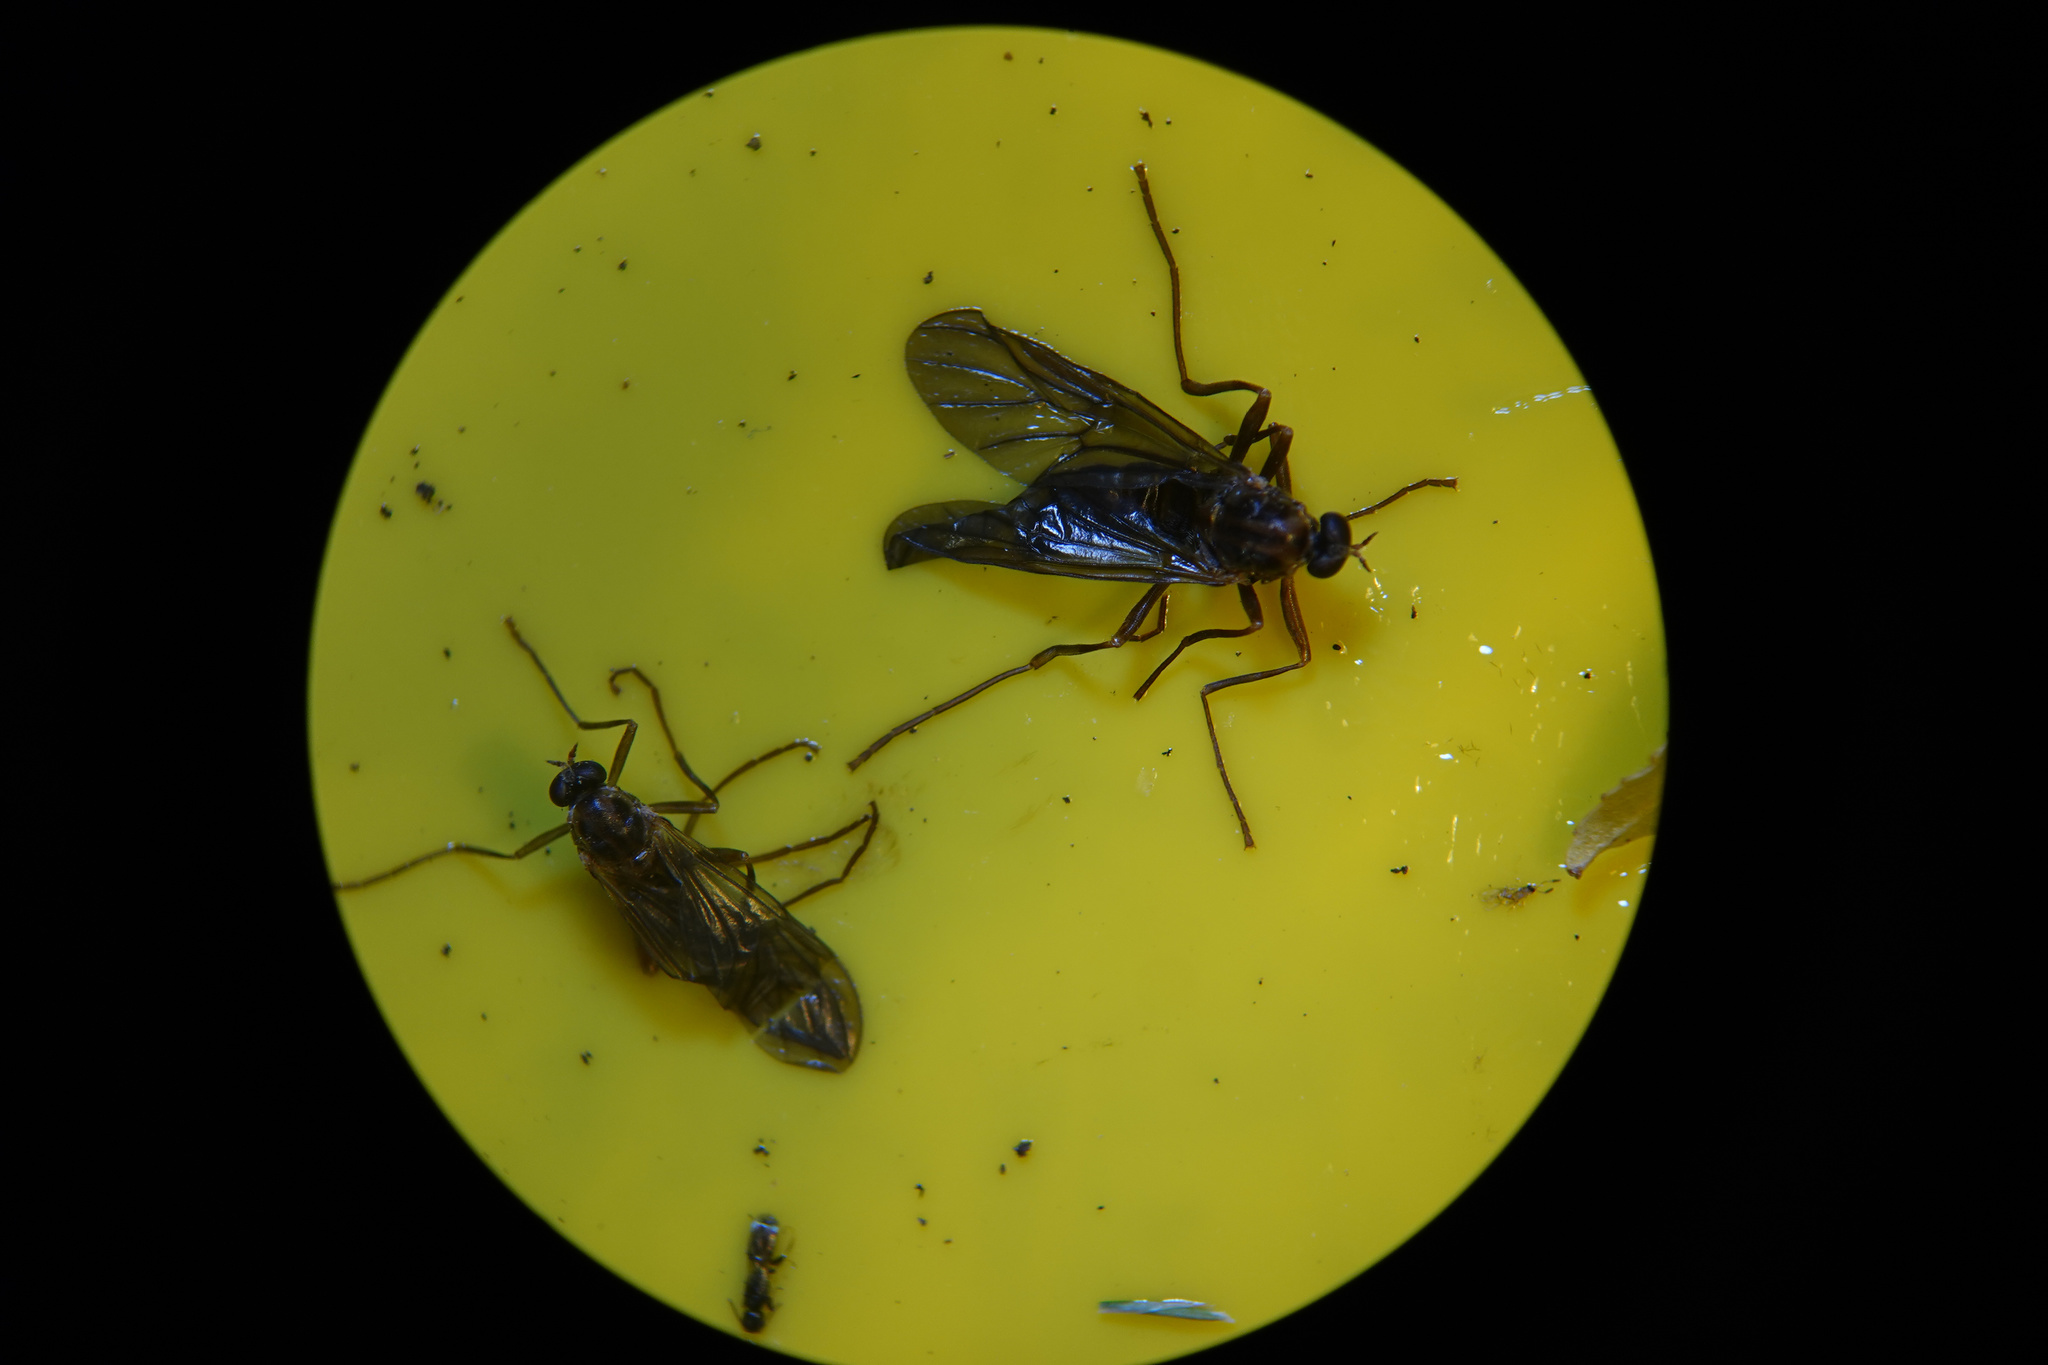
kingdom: Animalia
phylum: Arthropoda
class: Insecta
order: Diptera
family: Stratiomyidae
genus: Boreoides
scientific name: Boreoides tasmaniensis
